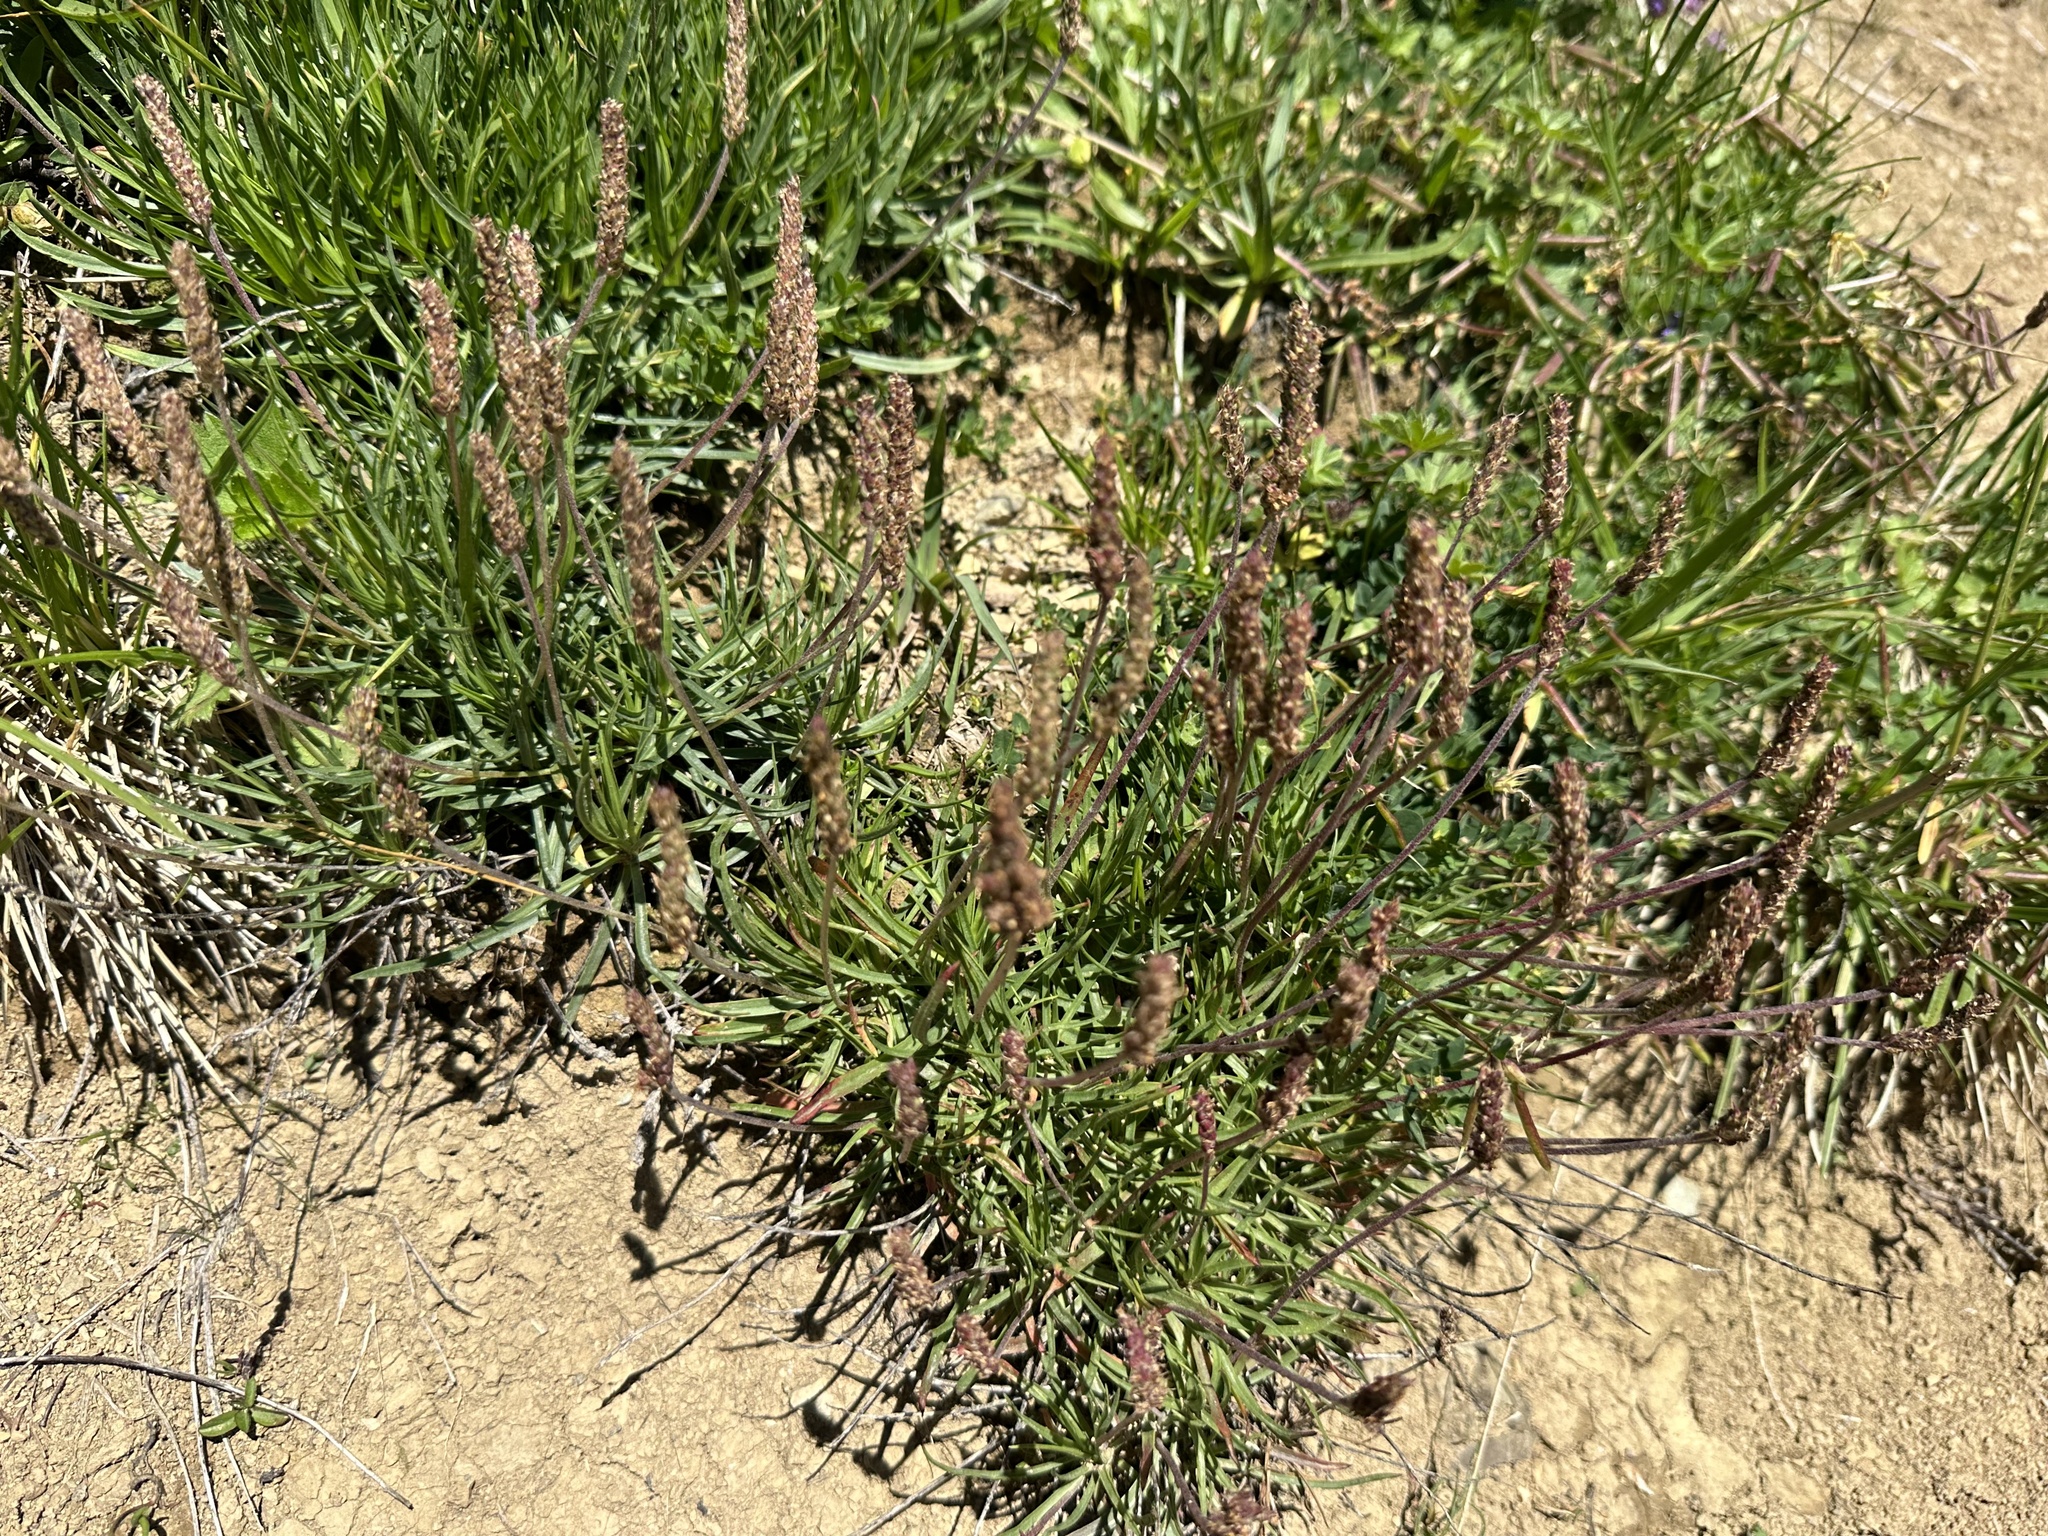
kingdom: Plantae
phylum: Tracheophyta
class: Magnoliopsida
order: Lamiales
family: Plantaginaceae
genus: Plantago
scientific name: Plantago alpina
